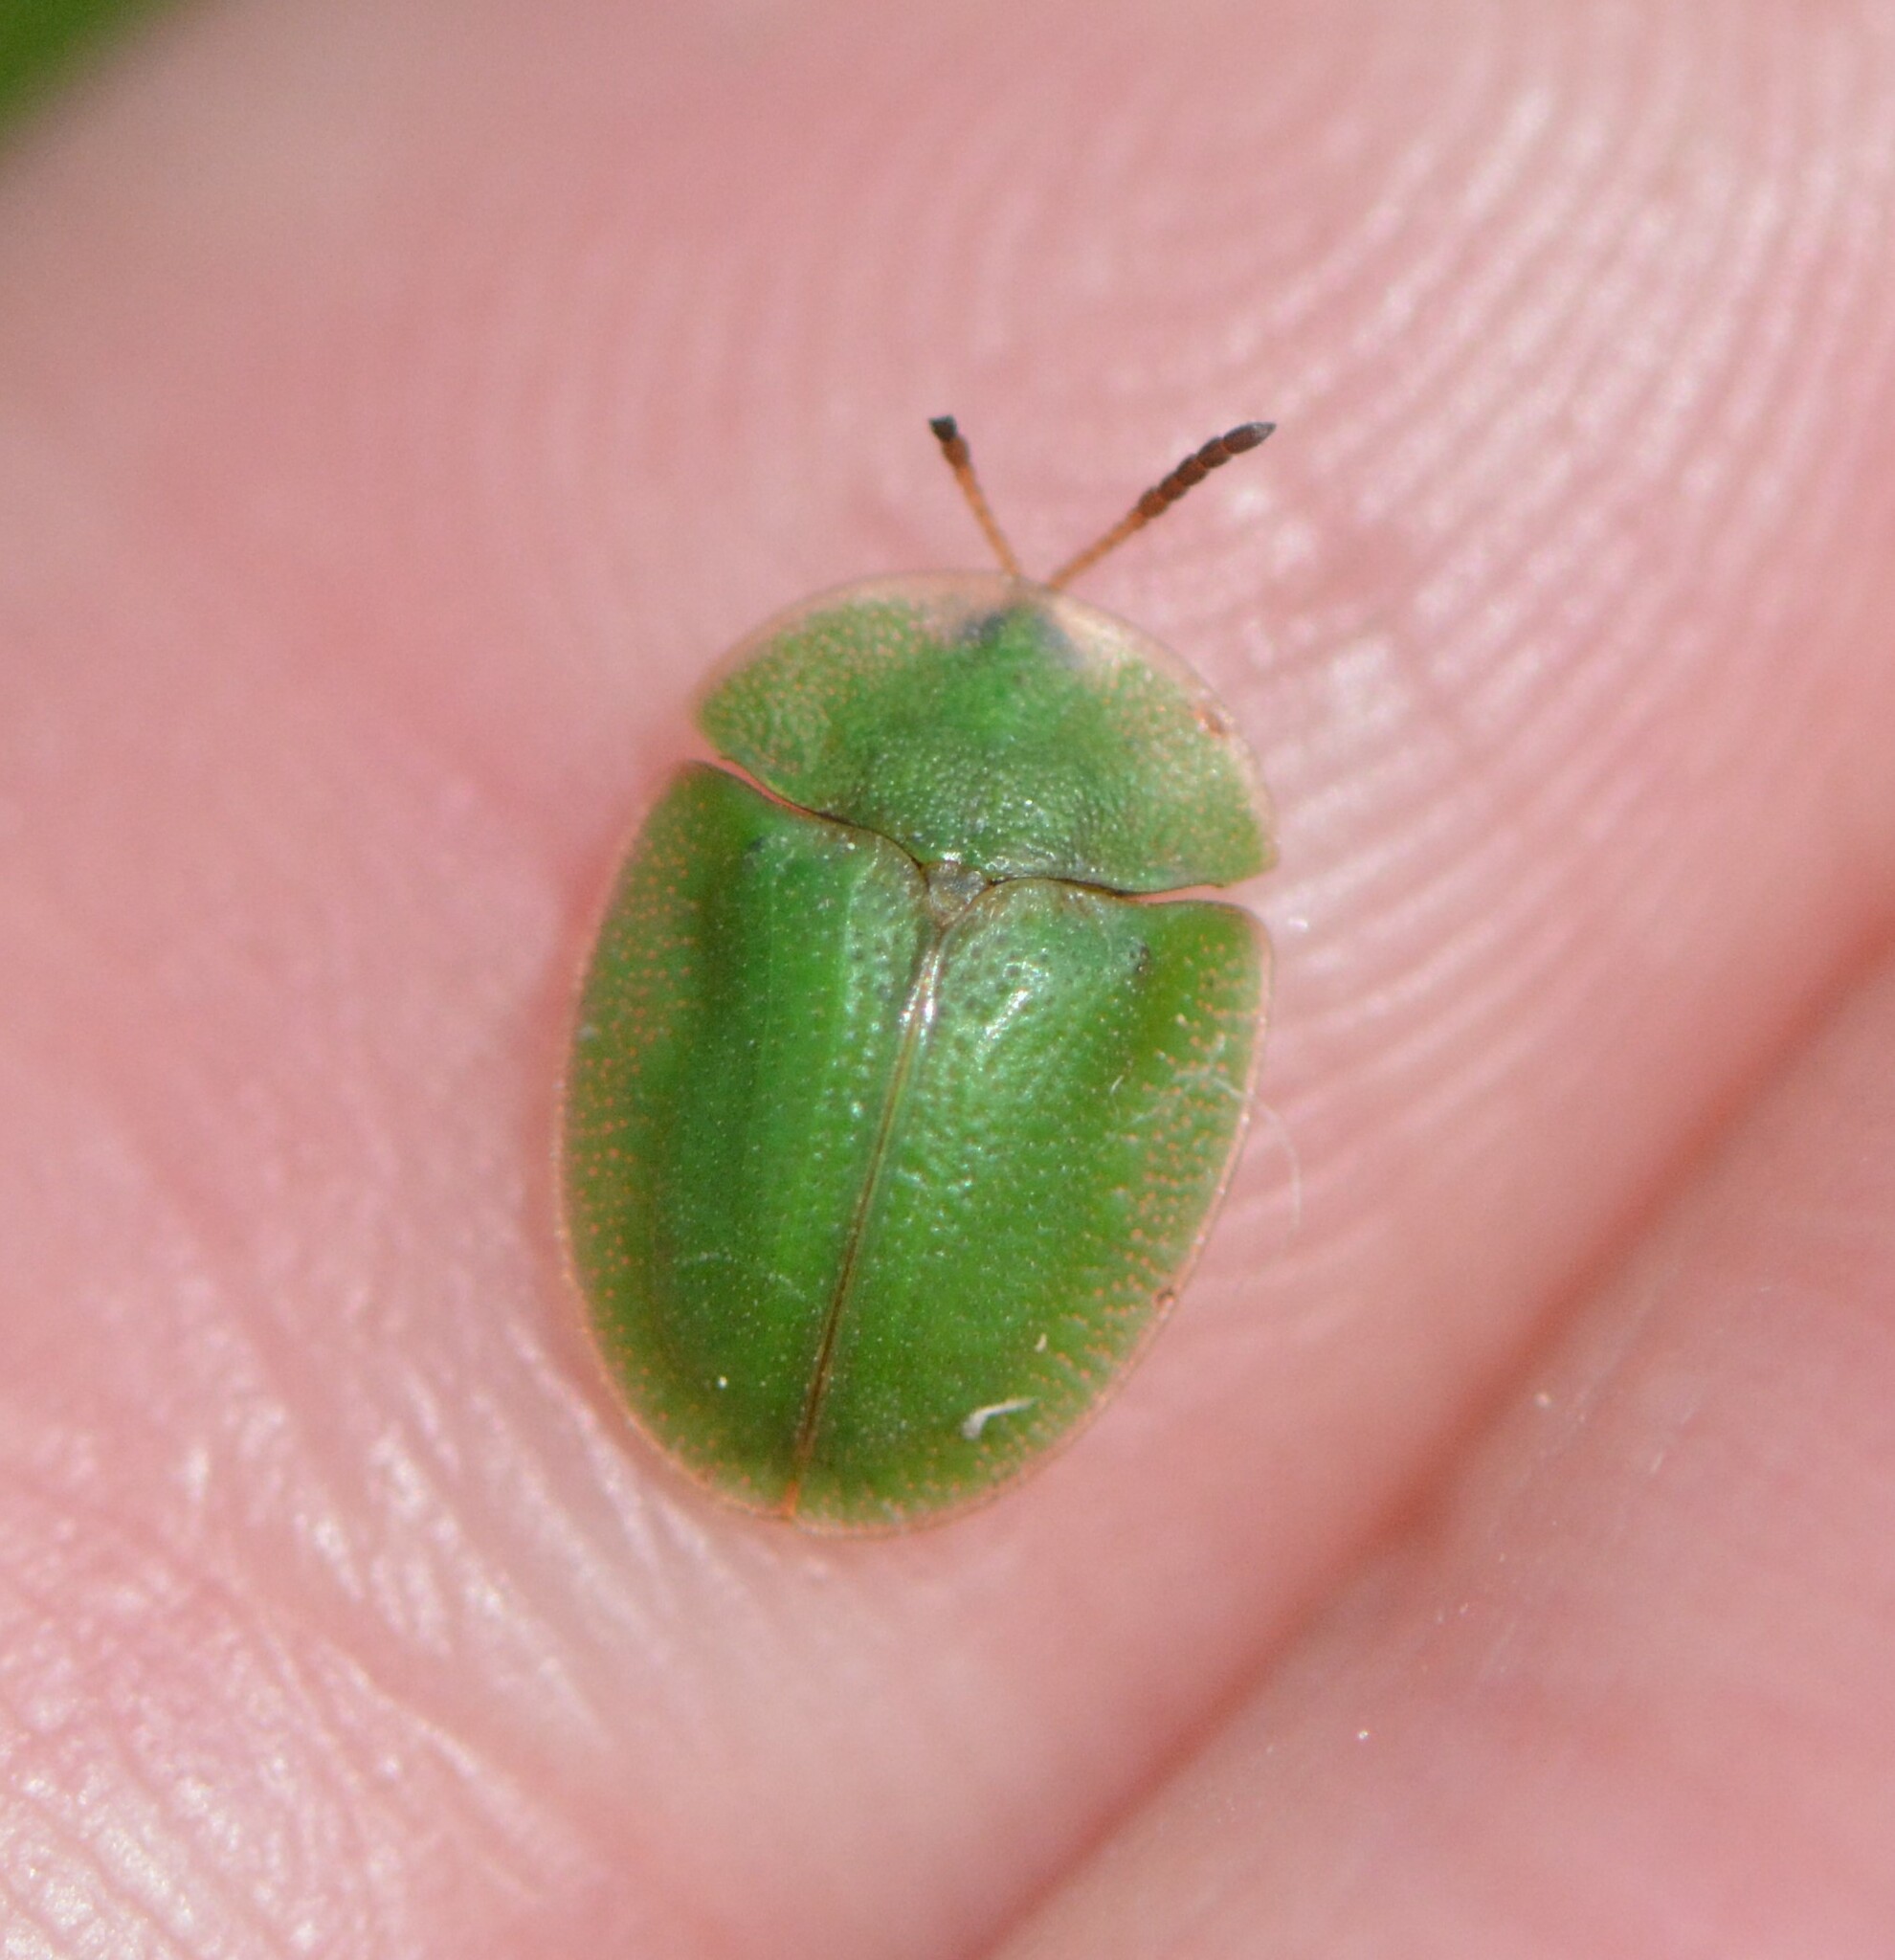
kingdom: Animalia
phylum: Arthropoda
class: Insecta
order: Coleoptera
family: Chrysomelidae
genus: Cassida
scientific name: Cassida rubiginosa
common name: Thistle tortoise beetle
